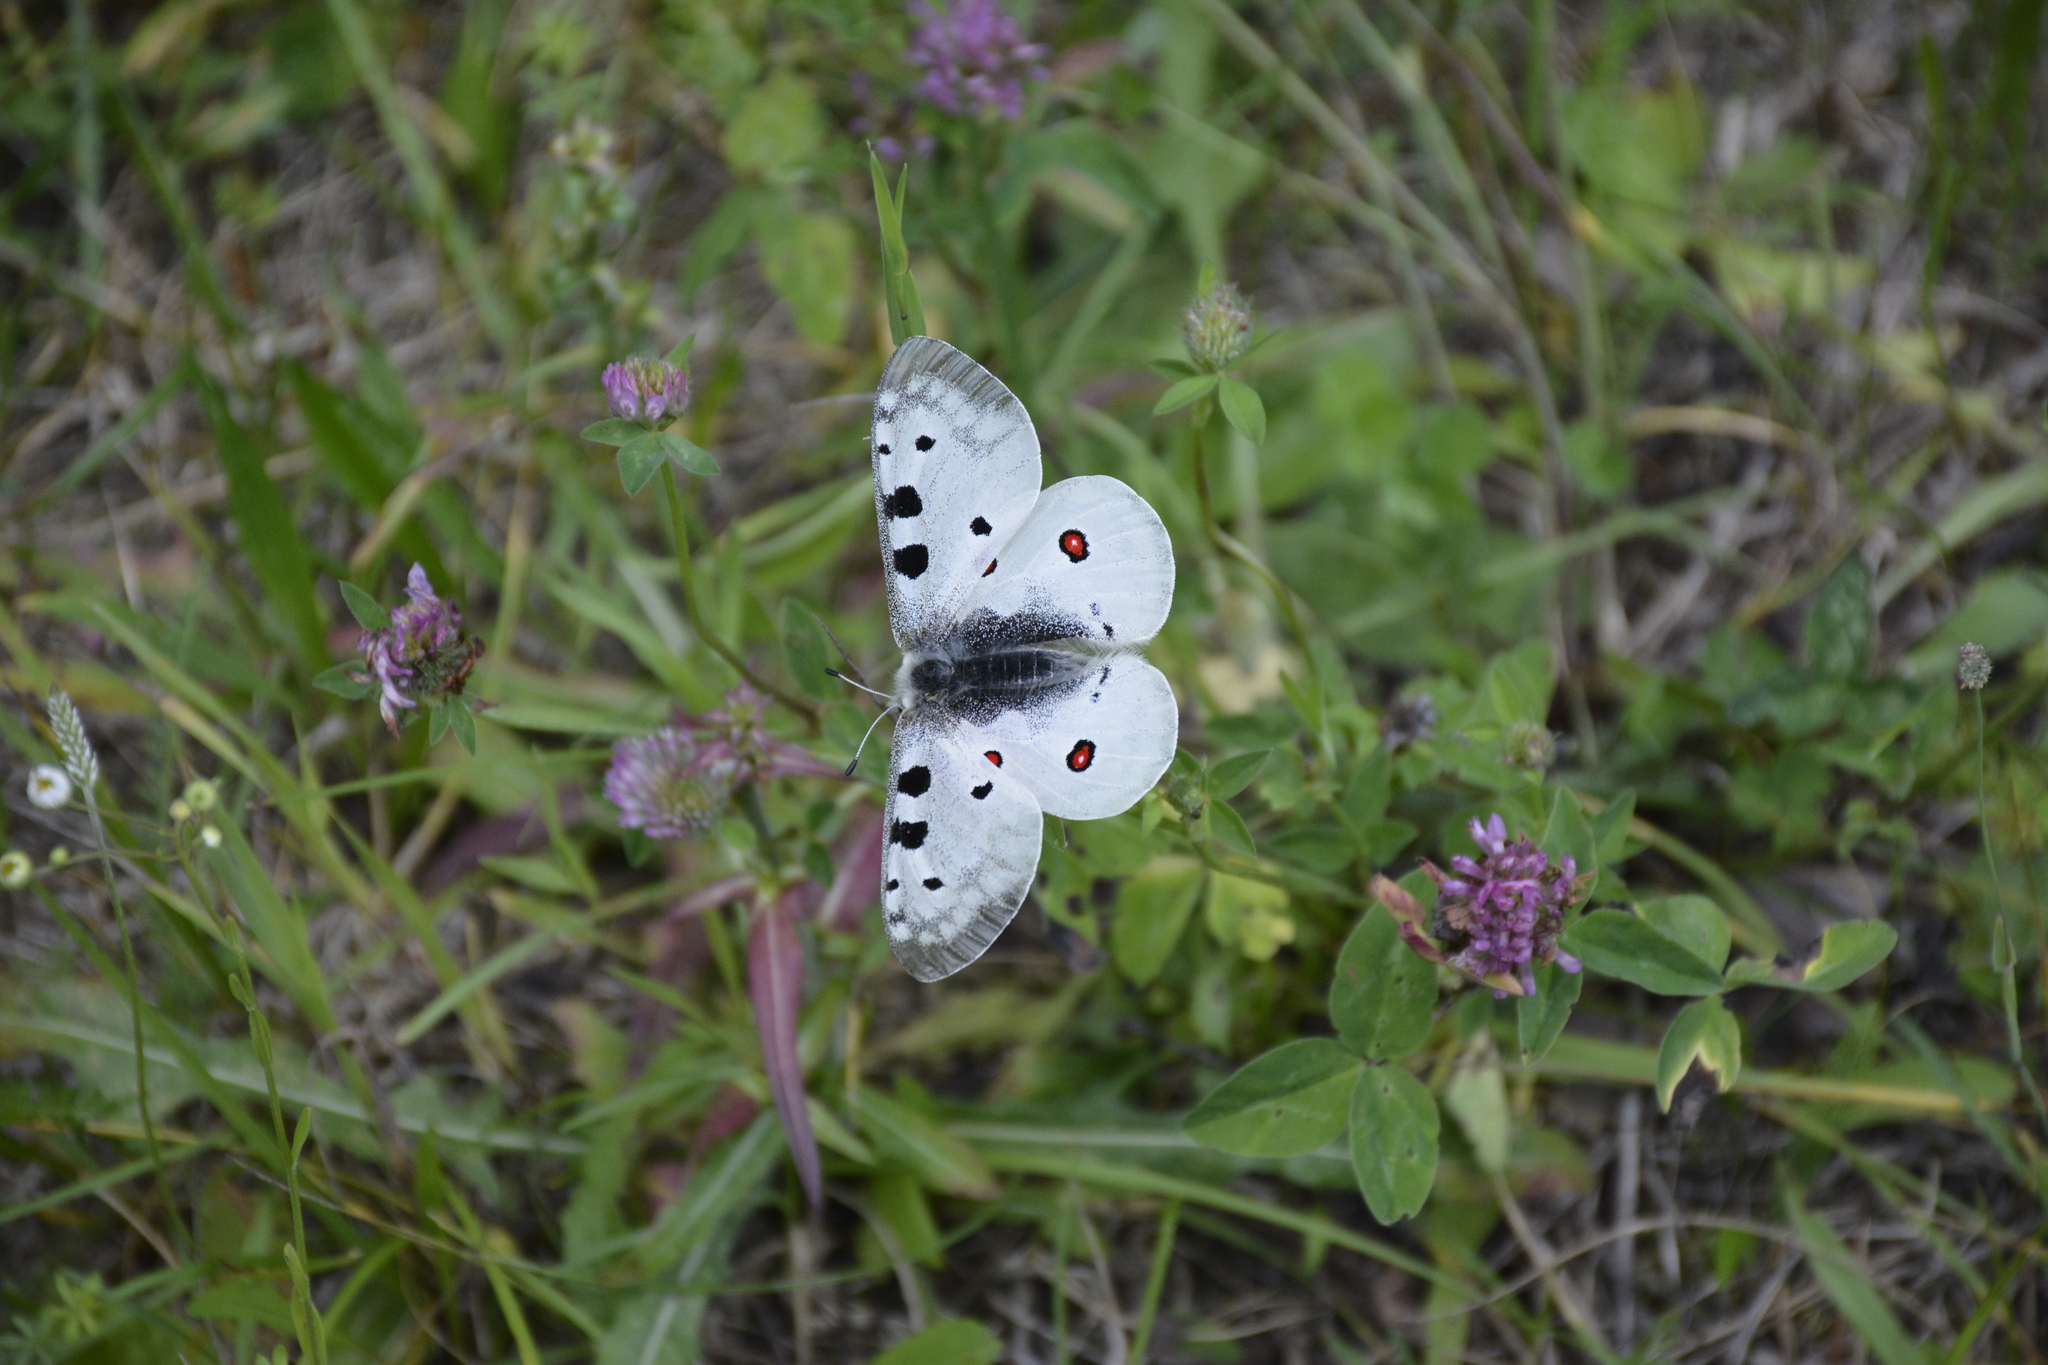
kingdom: Animalia
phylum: Arthropoda
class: Insecta
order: Lepidoptera
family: Papilionidae
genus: Parnassius
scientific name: Parnassius apollo
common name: Apollo
